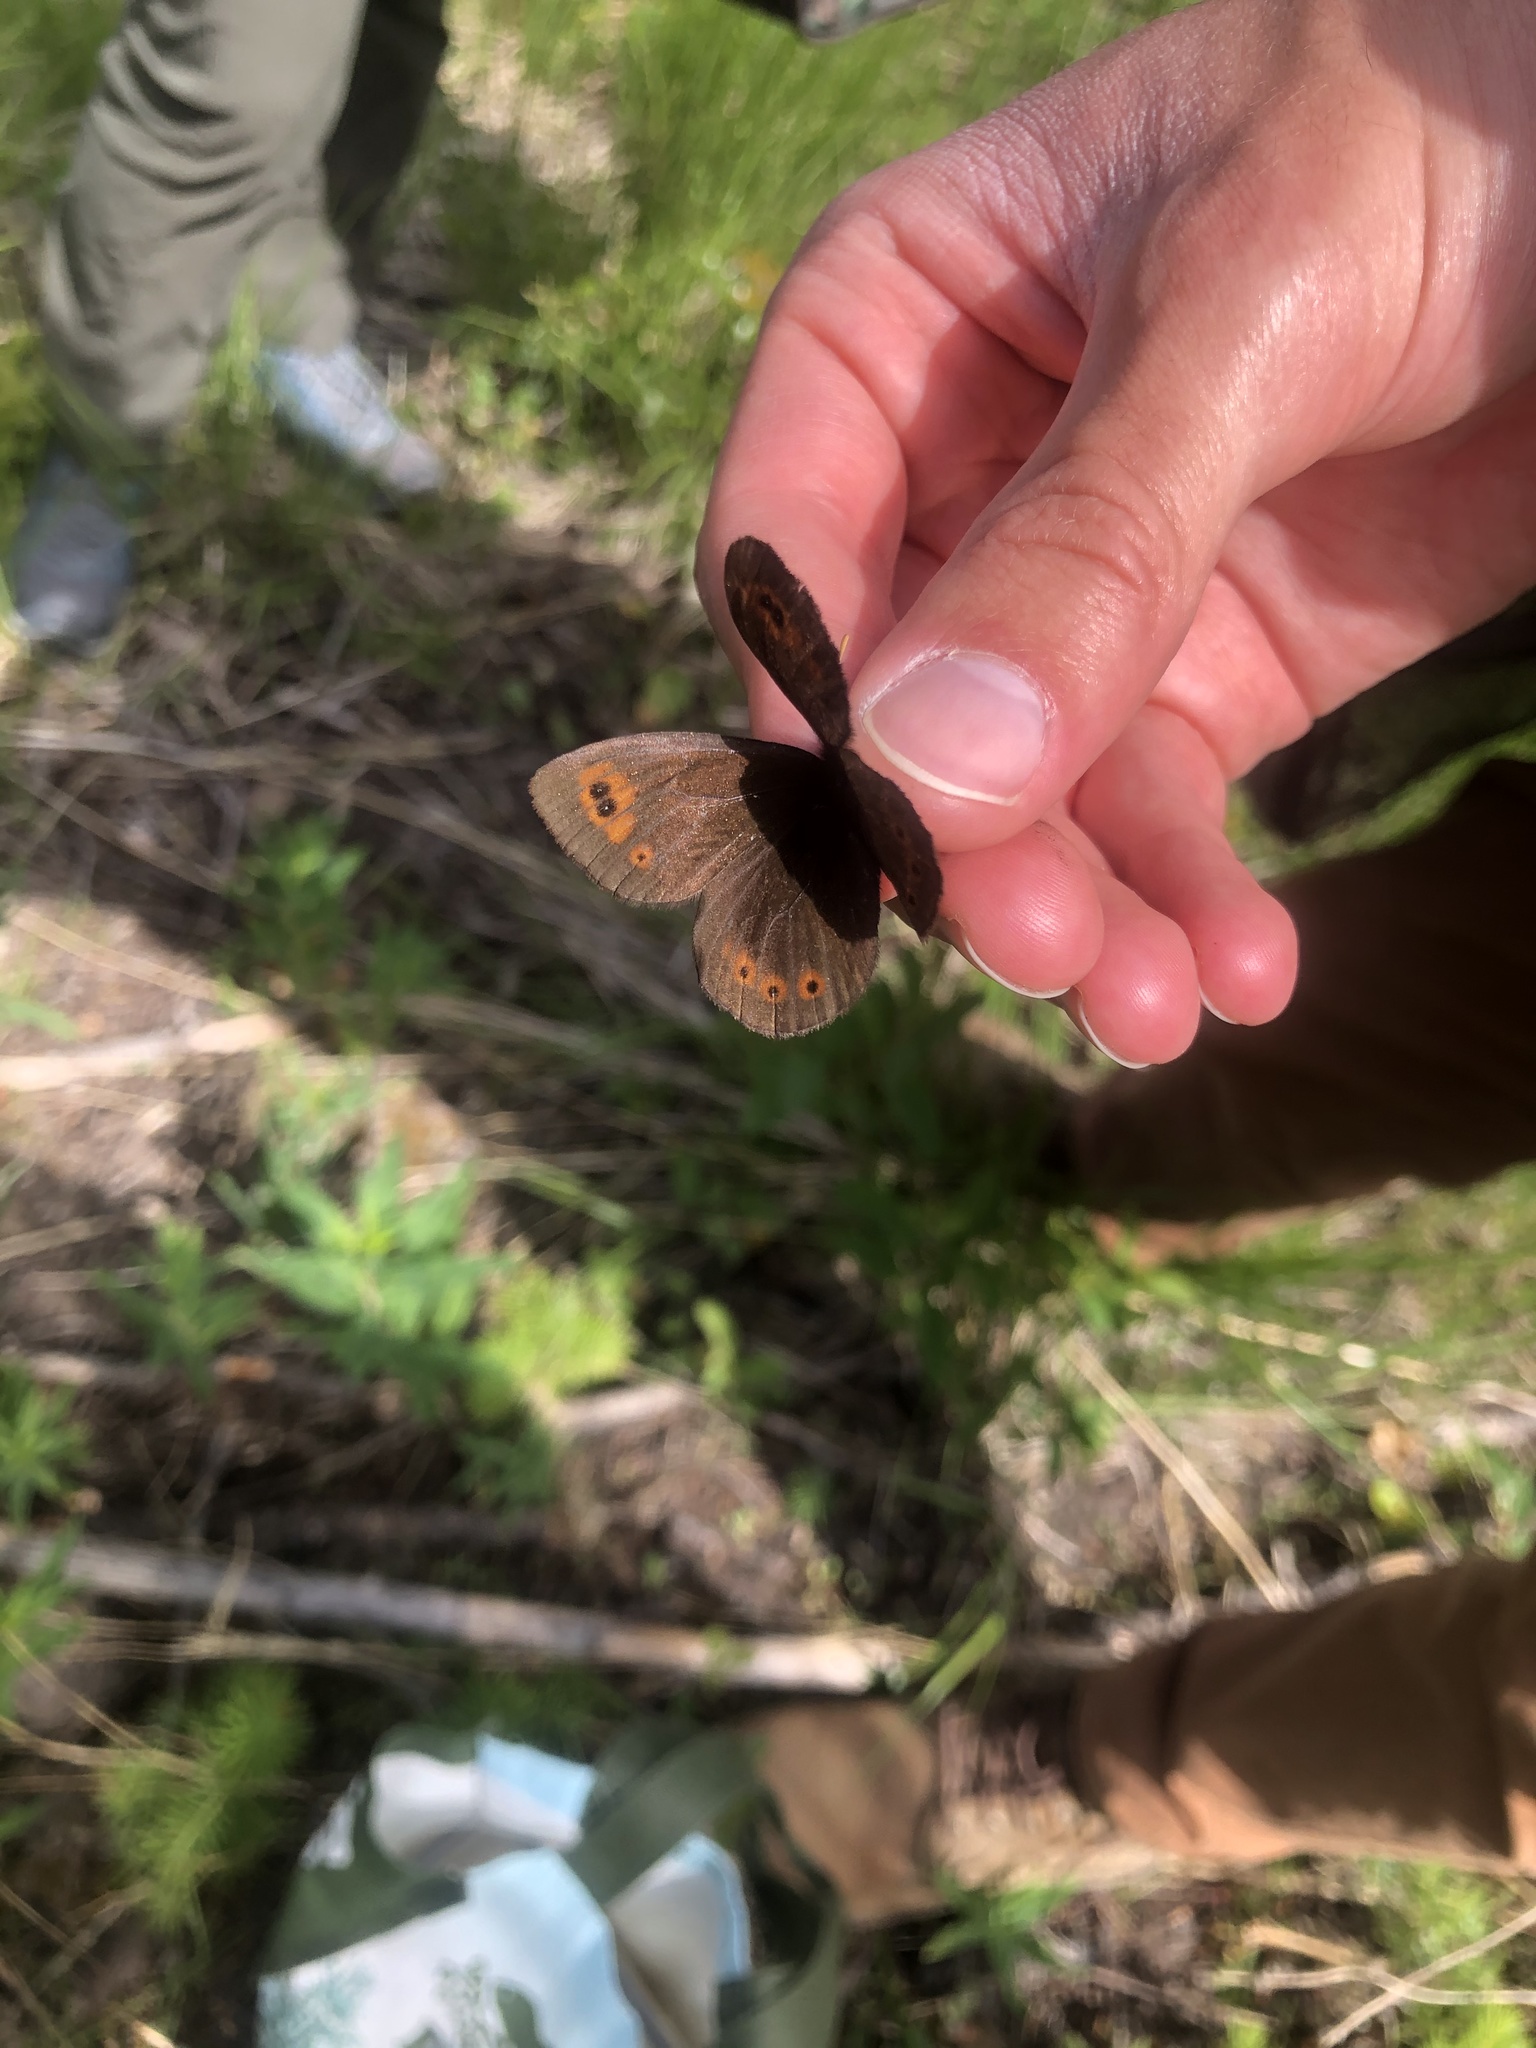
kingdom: Animalia
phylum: Arthropoda
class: Insecta
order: Lepidoptera
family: Nymphalidae
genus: Erebia
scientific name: Erebia epipsodea
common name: Common alpine
